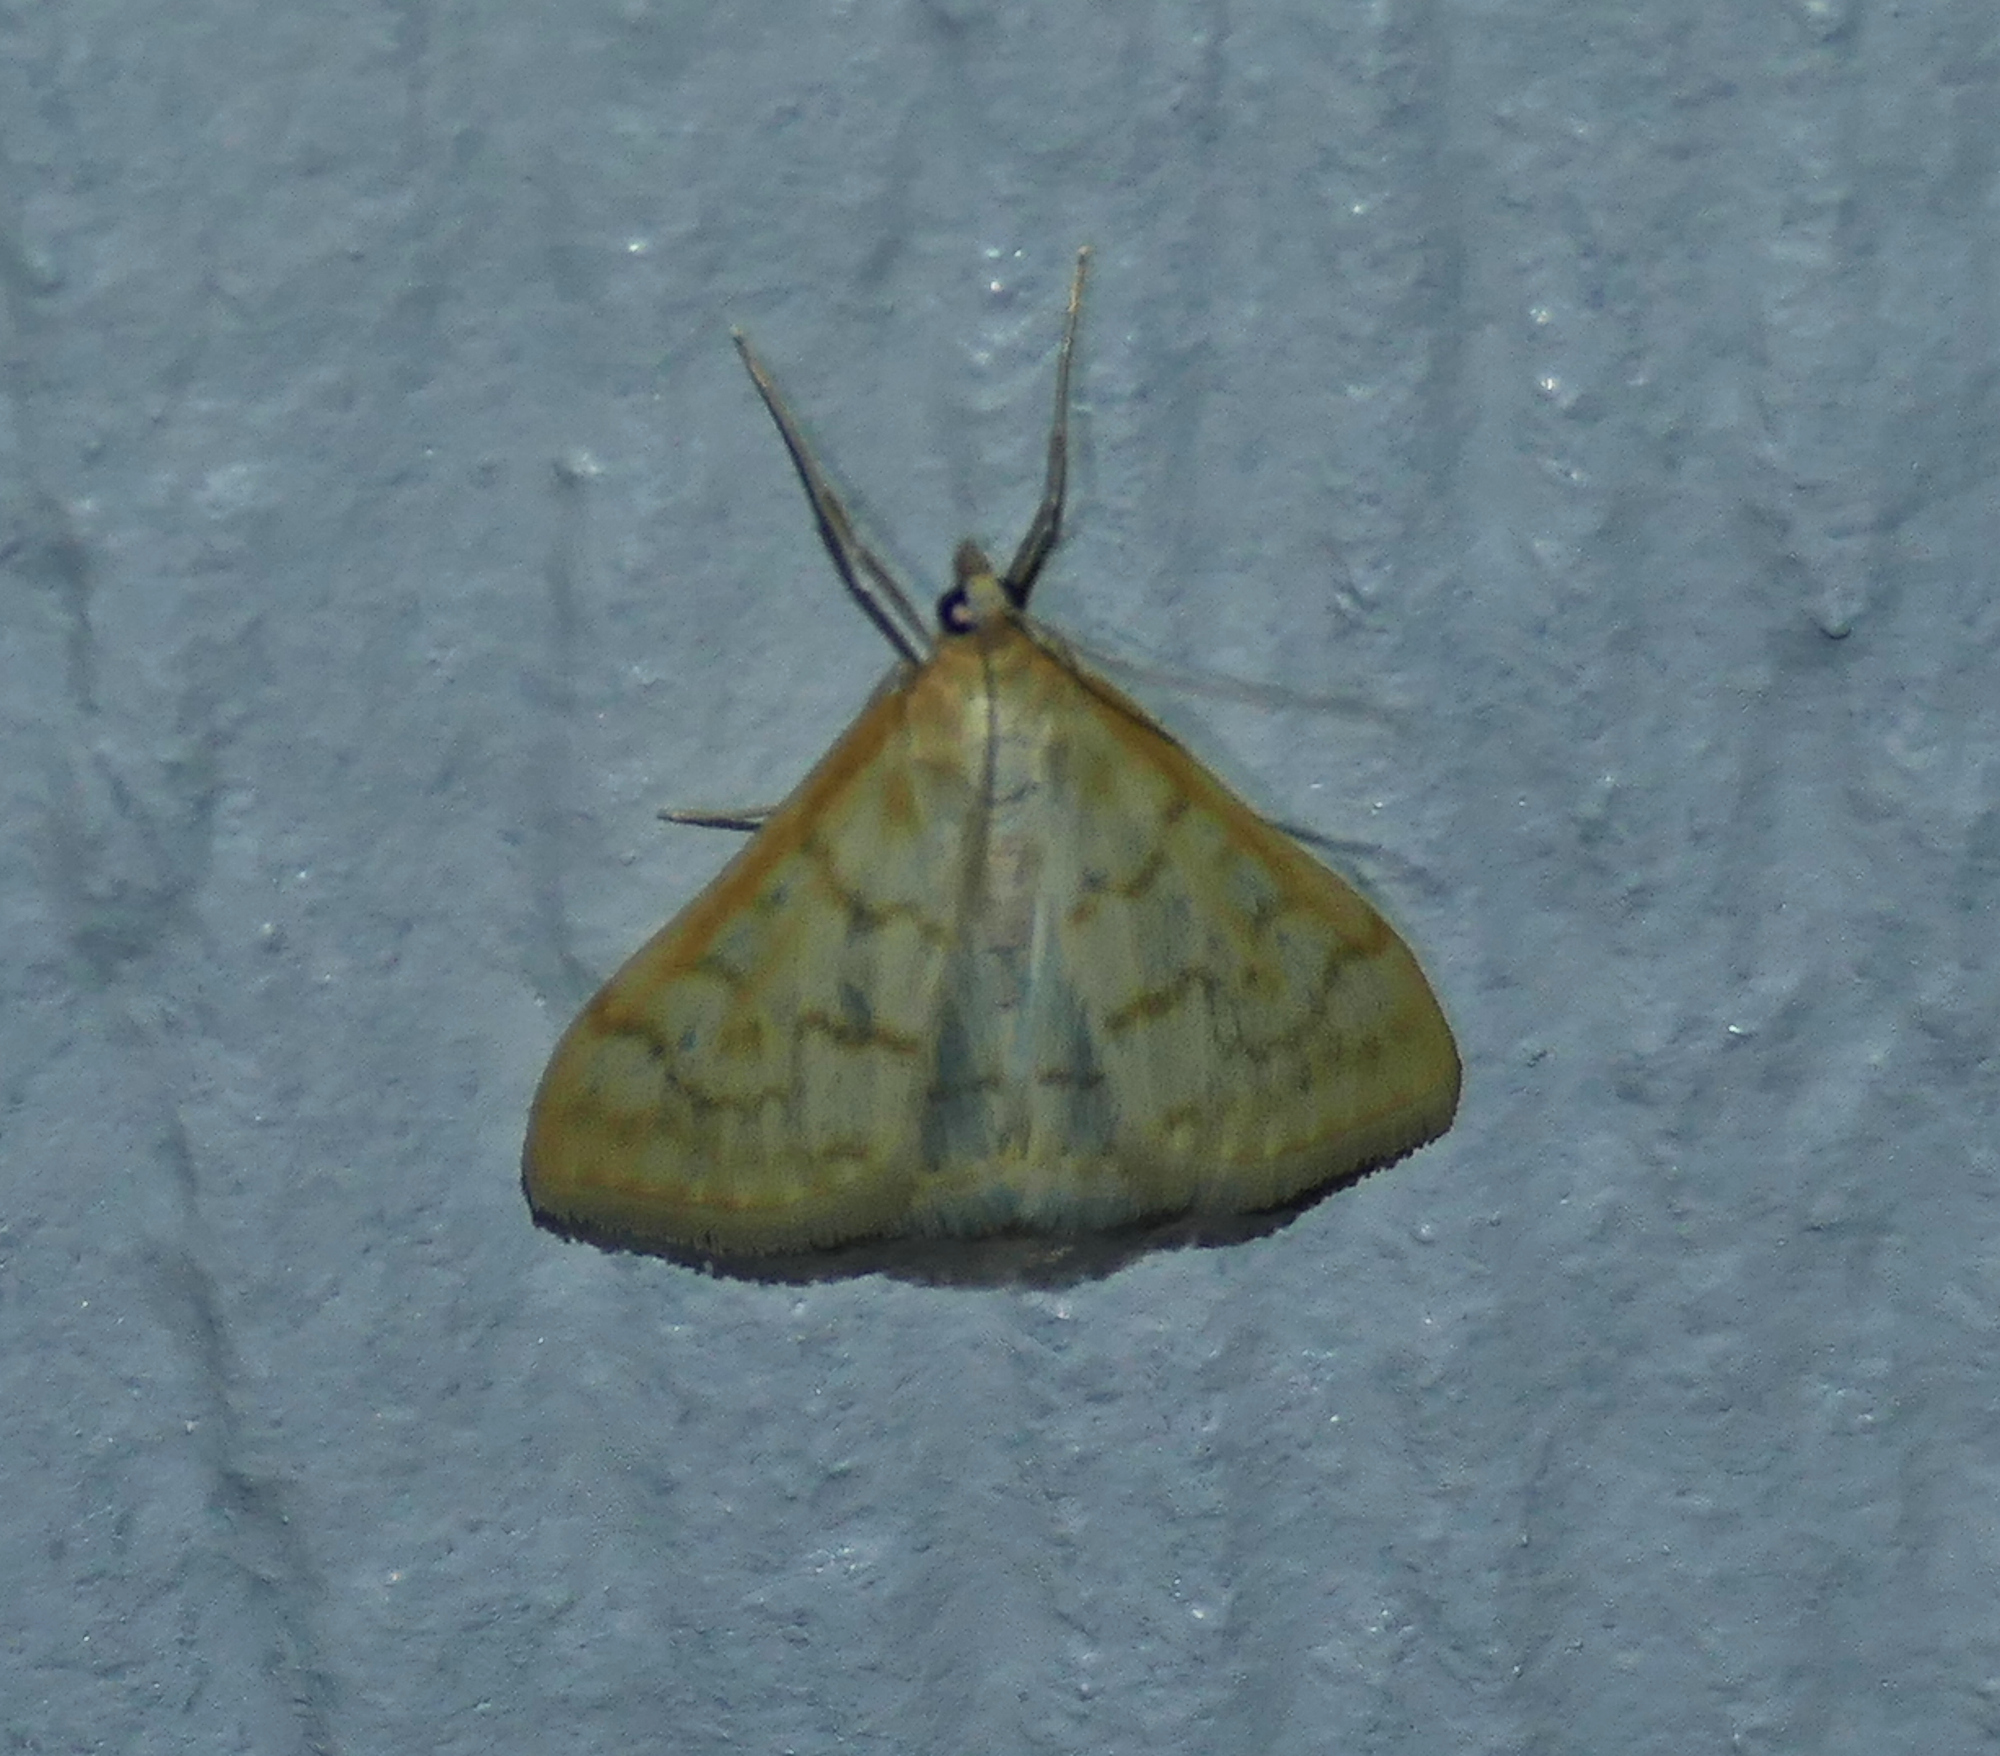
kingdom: Animalia
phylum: Arthropoda
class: Insecta
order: Lepidoptera
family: Crambidae
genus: Hahncappsia
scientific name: Hahncappsia pergilvalis
